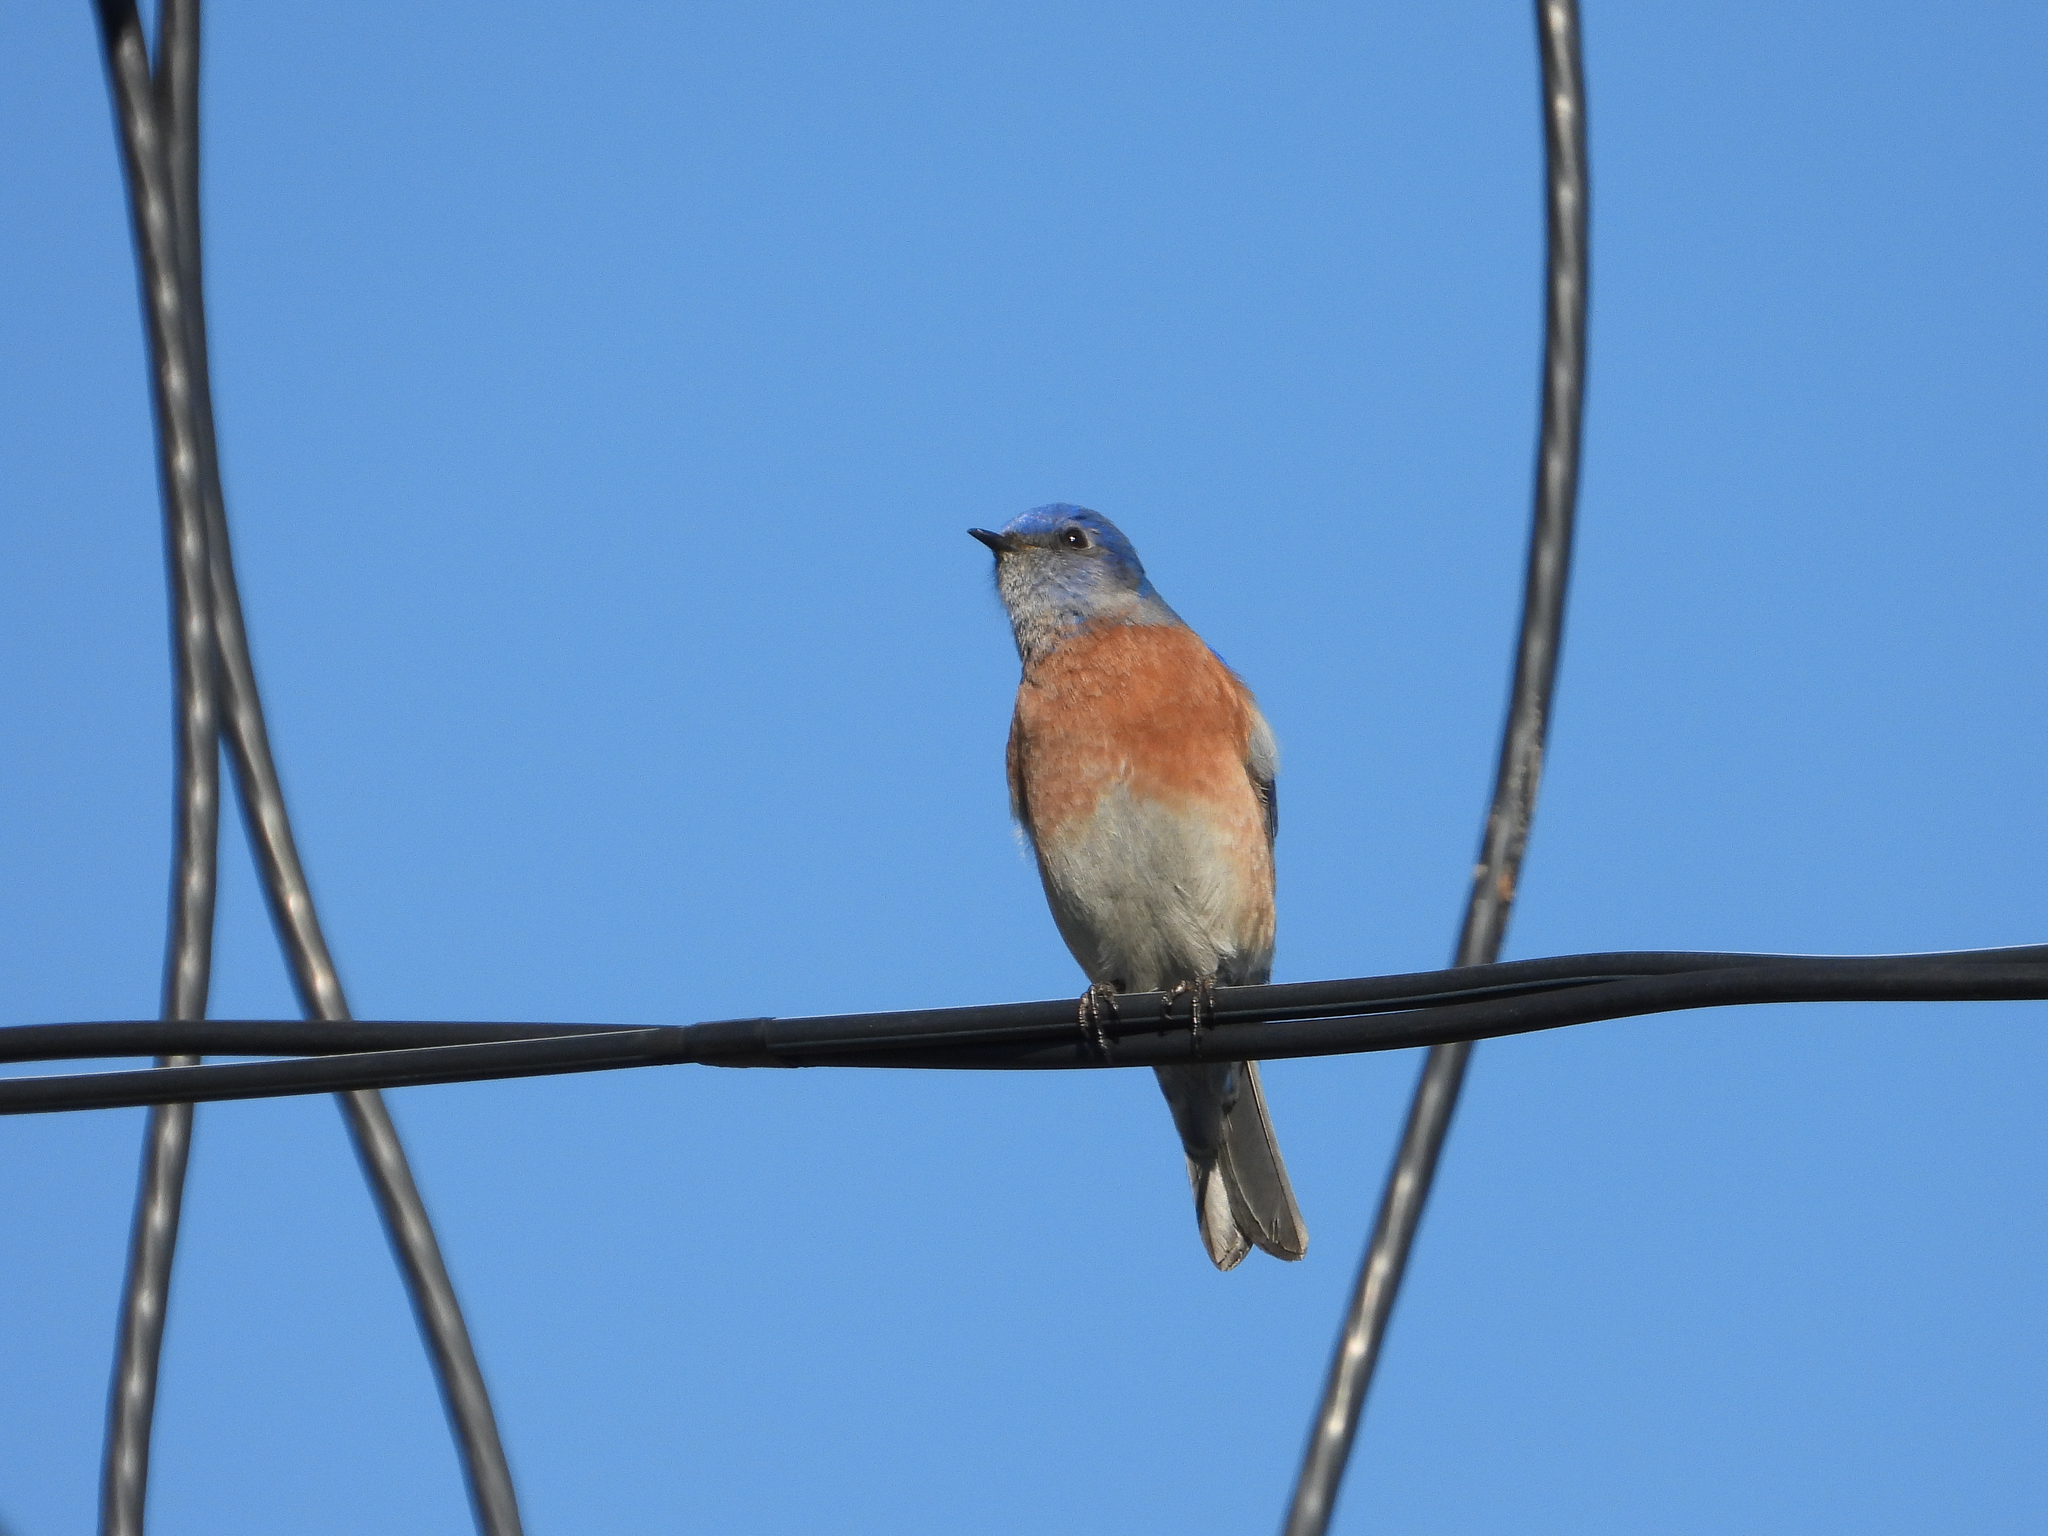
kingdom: Animalia
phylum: Chordata
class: Aves
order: Passeriformes
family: Turdidae
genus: Sialia
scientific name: Sialia mexicana
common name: Western bluebird
